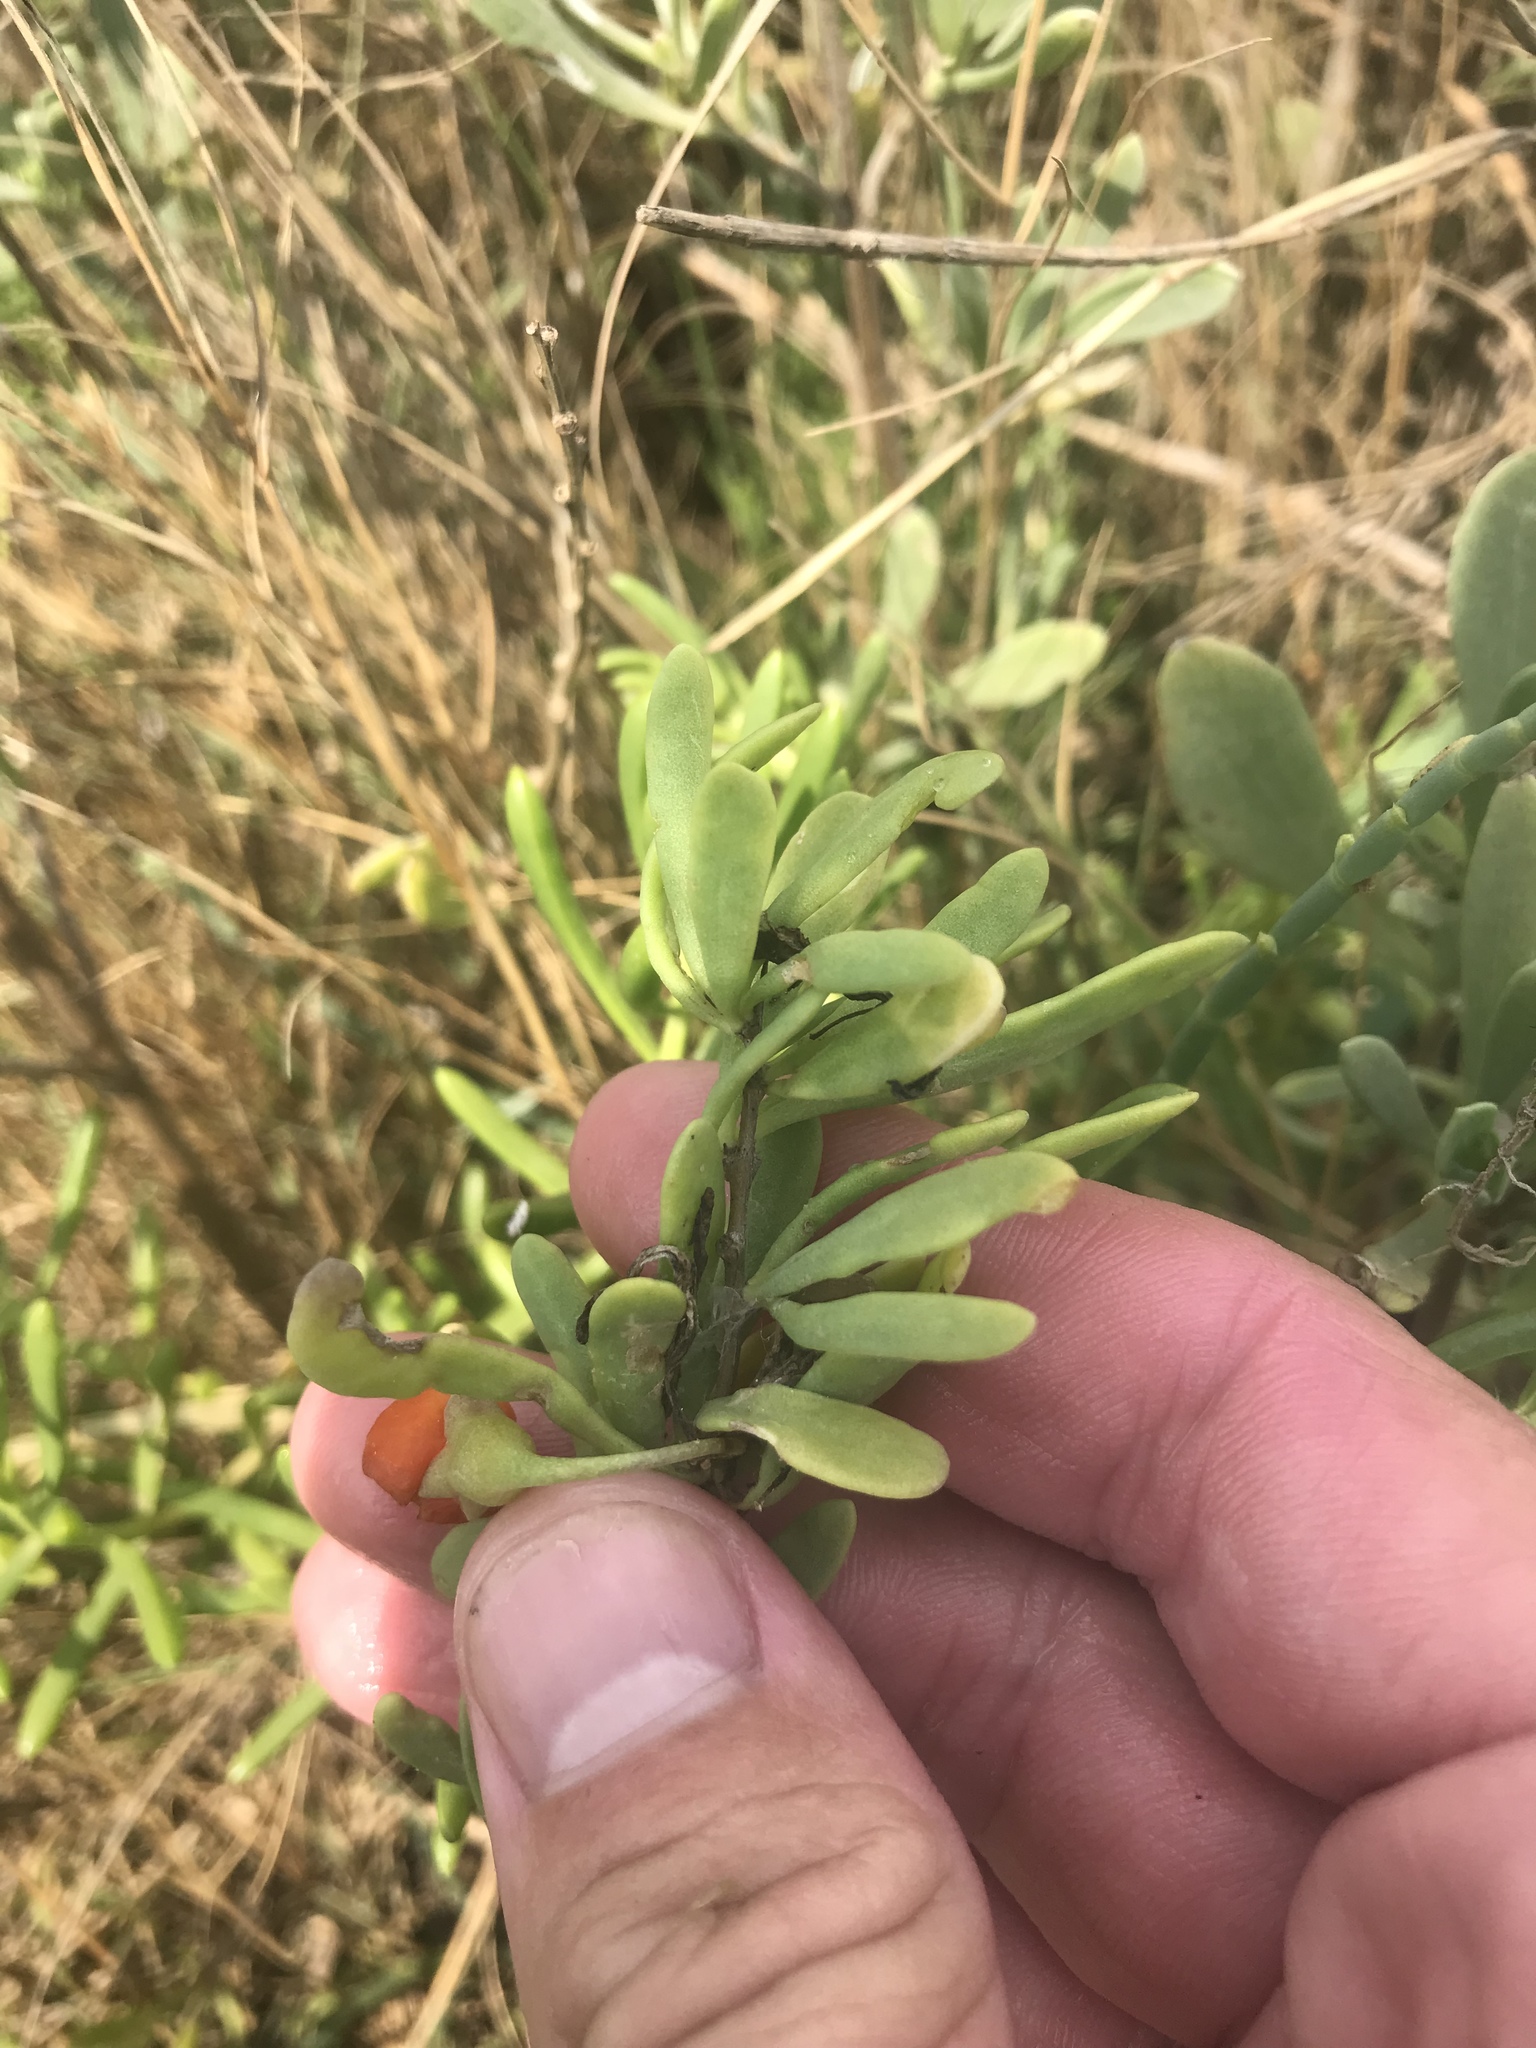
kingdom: Plantae
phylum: Tracheophyta
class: Magnoliopsida
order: Solanales
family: Solanaceae
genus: Lycium
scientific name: Lycium carolinianum
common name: Christmasberry
